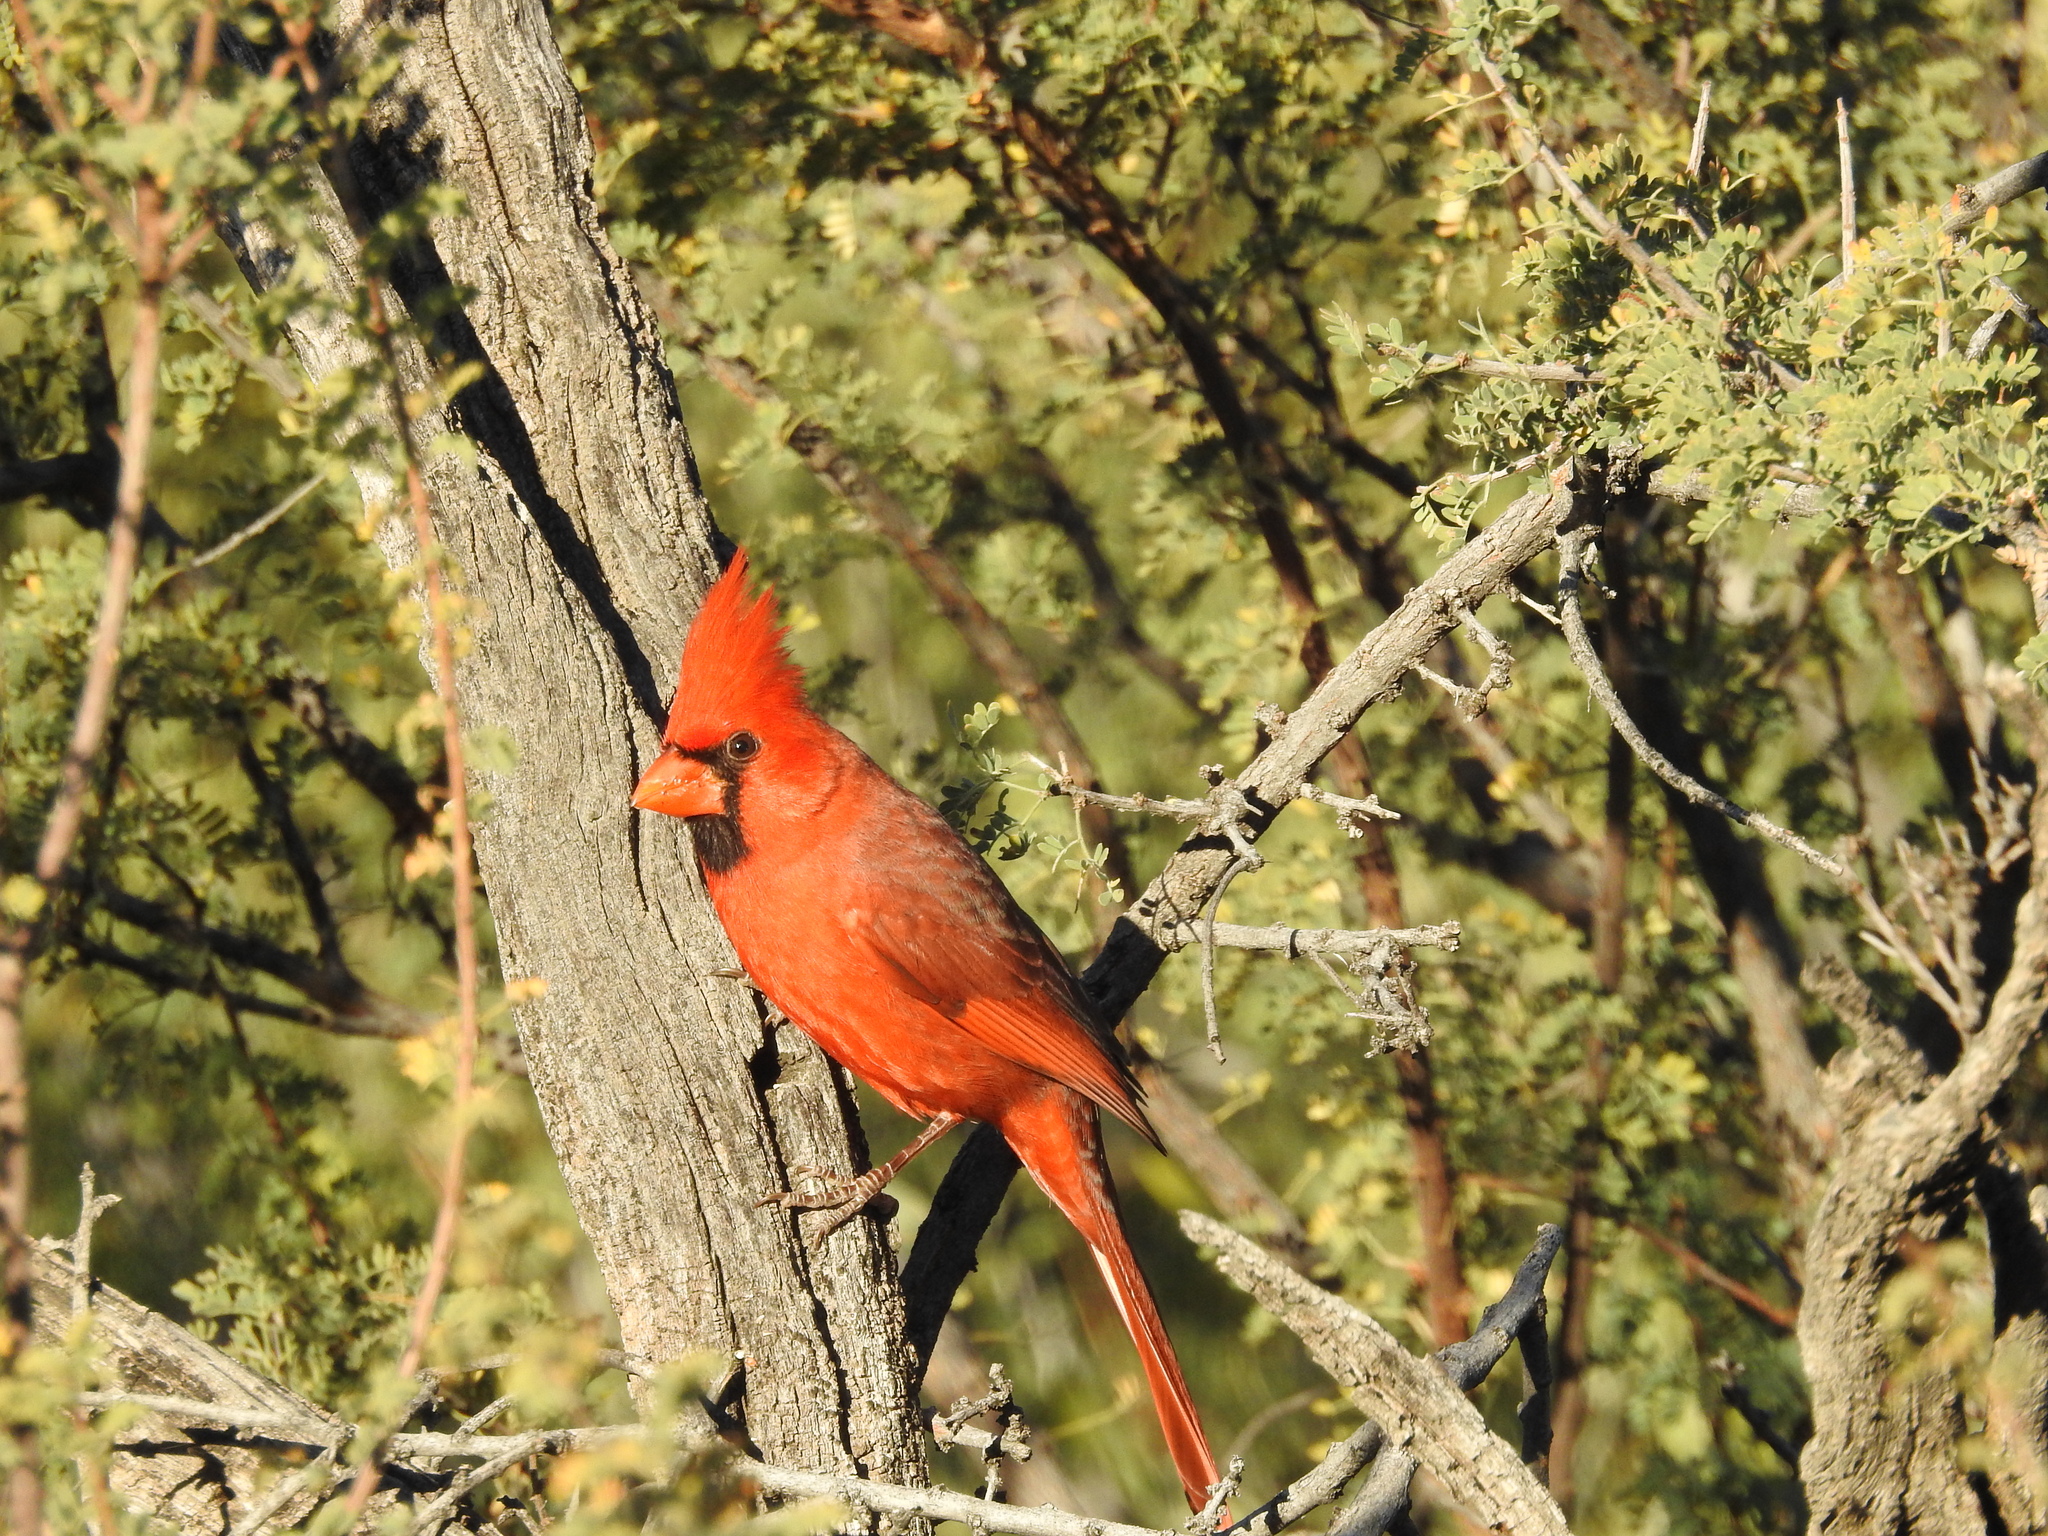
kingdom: Animalia
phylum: Chordata
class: Aves
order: Passeriformes
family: Cardinalidae
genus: Cardinalis
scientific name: Cardinalis cardinalis
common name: Northern cardinal
